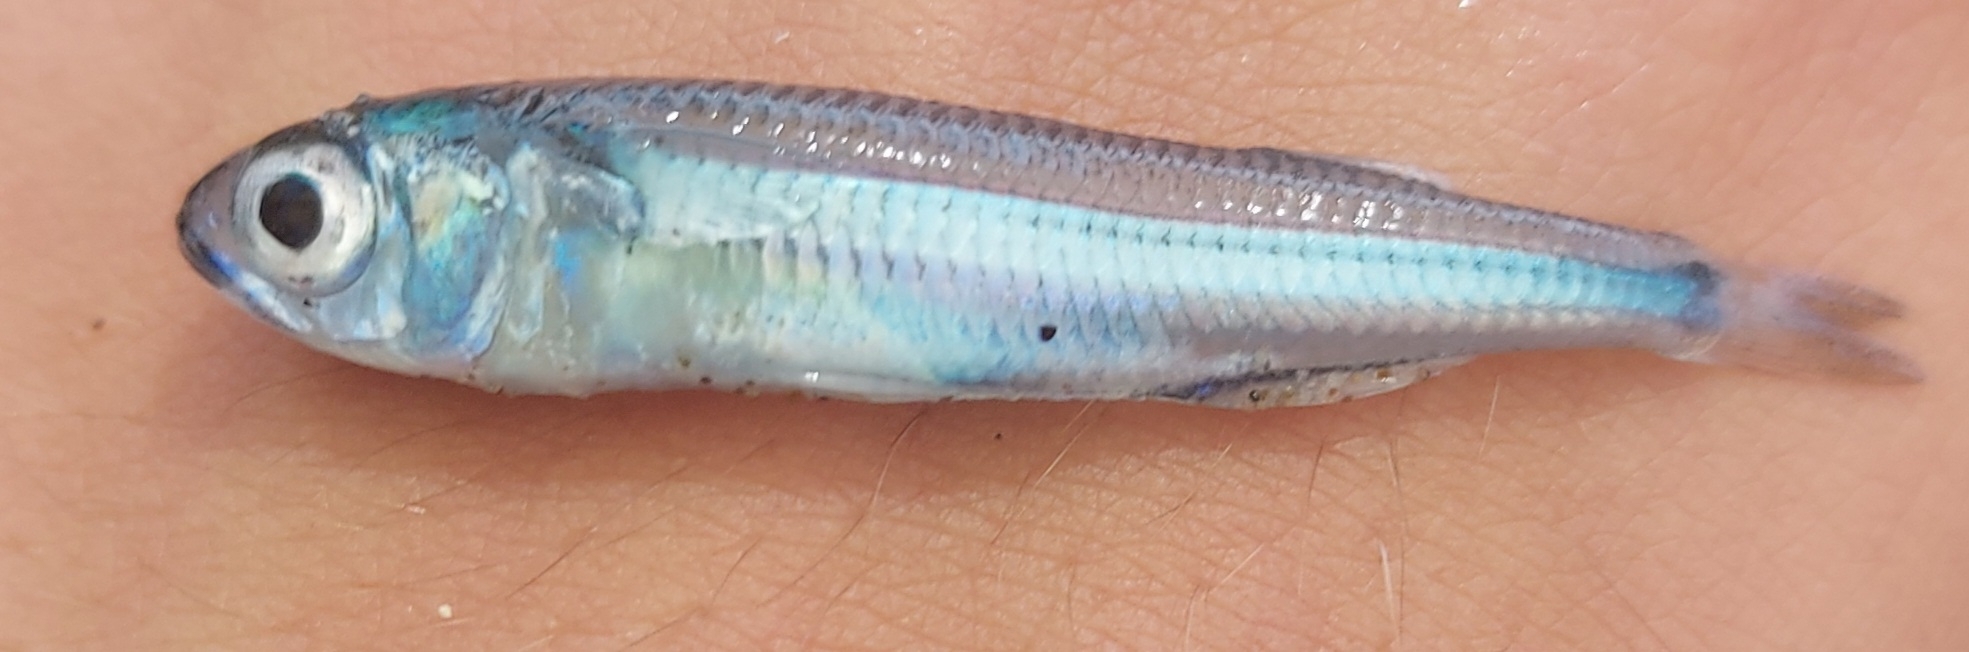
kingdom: Animalia
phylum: Chordata
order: Atheriniformes
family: Atherinidae
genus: Atherinomorus
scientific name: Atherinomorus forskalii
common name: Red sea hardyhead silverside
